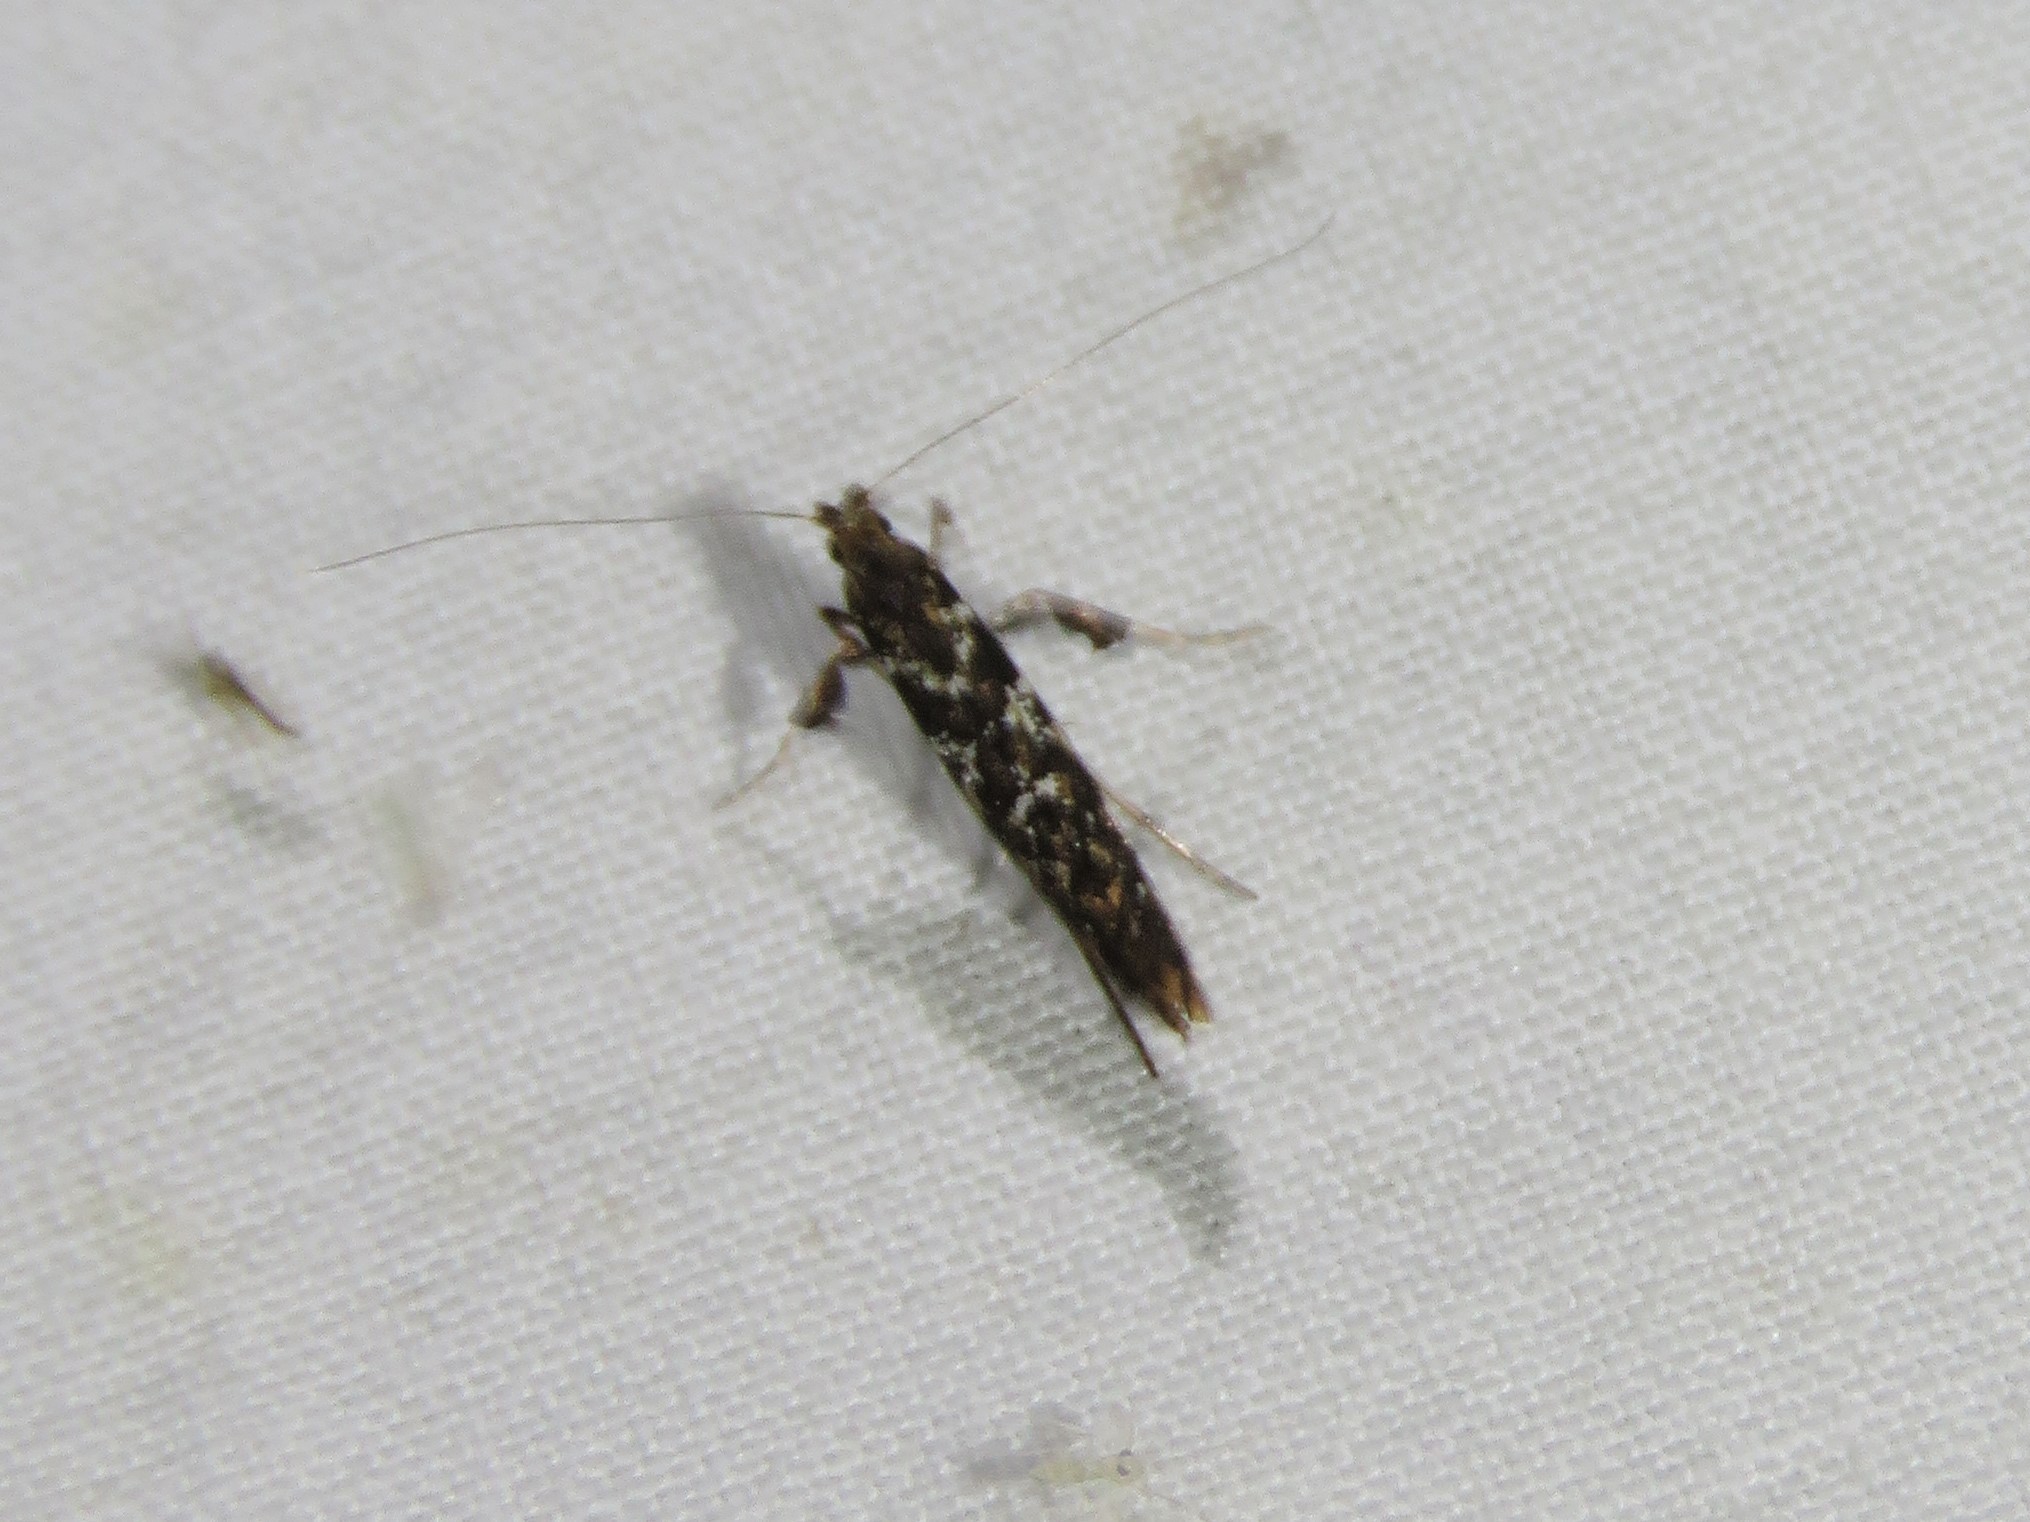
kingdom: Animalia
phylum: Arthropoda
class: Insecta
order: Lepidoptera
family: Gracillariidae
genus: Caloptilia
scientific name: Caloptilia serotinella
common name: Cherry leafroller moth
